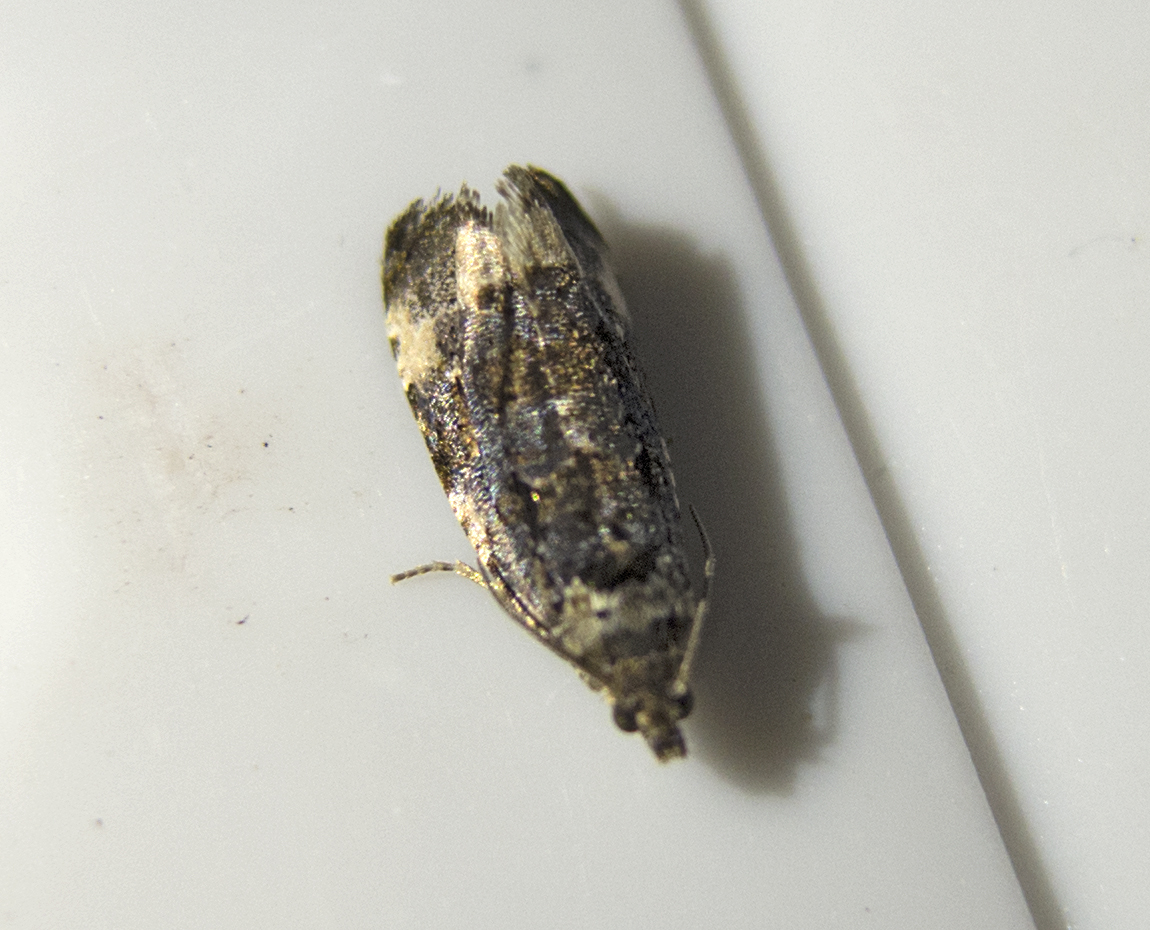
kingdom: Animalia
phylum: Arthropoda
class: Insecta
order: Lepidoptera
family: Tortricidae
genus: Endothenia
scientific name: Endothenia
